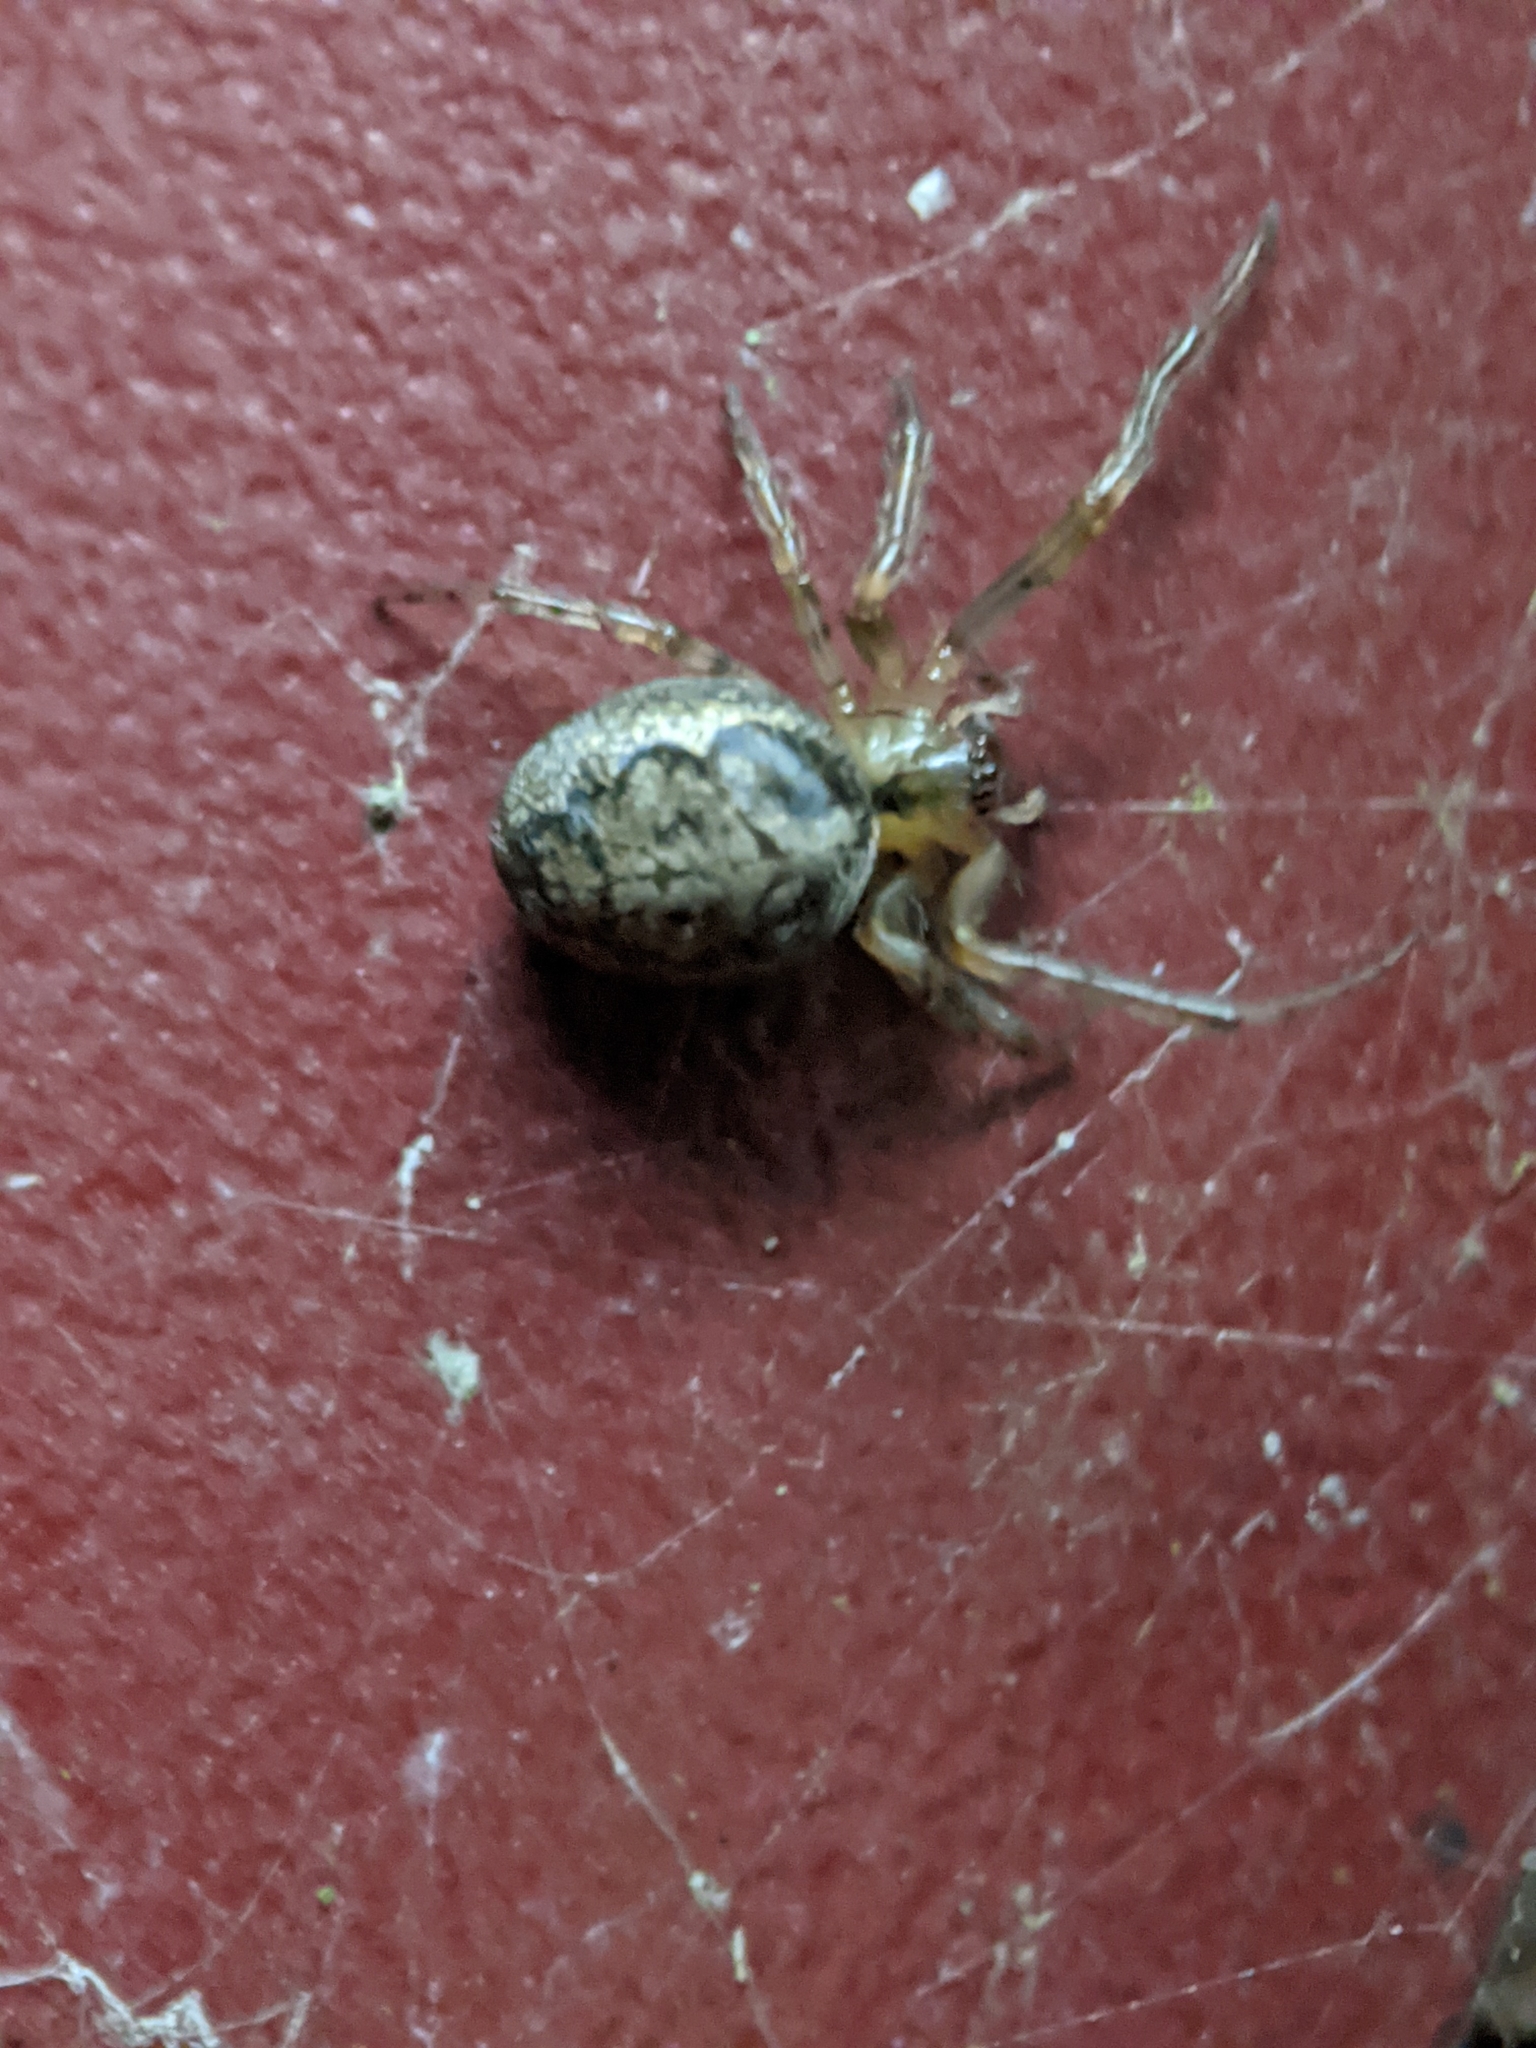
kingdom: Animalia
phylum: Arthropoda
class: Arachnida
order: Araneae
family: Araneidae
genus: Zygiella
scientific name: Zygiella x-notata
